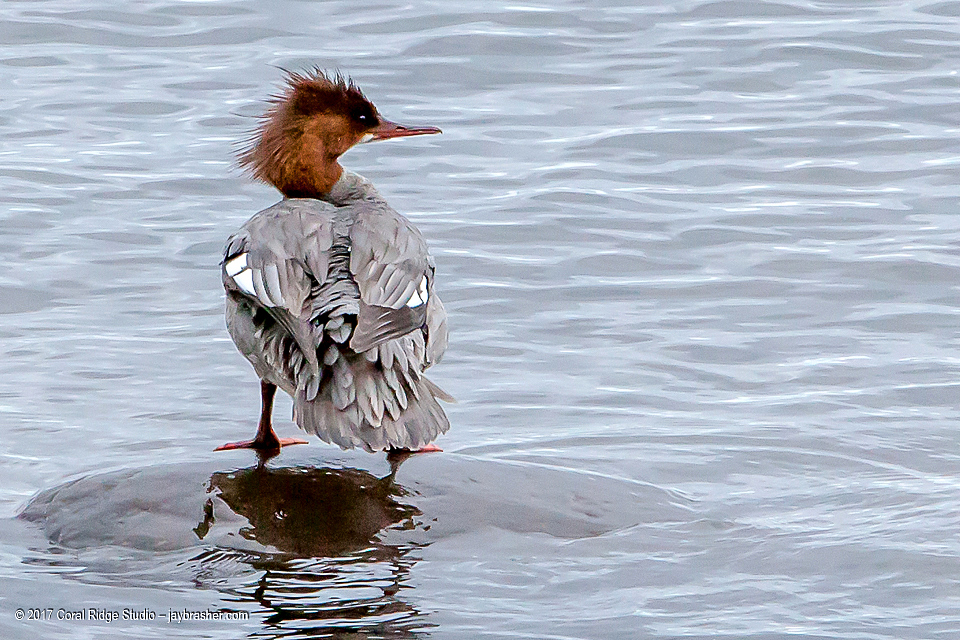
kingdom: Animalia
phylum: Chordata
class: Aves
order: Anseriformes
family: Anatidae
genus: Mergus
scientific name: Mergus merganser
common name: Common merganser
